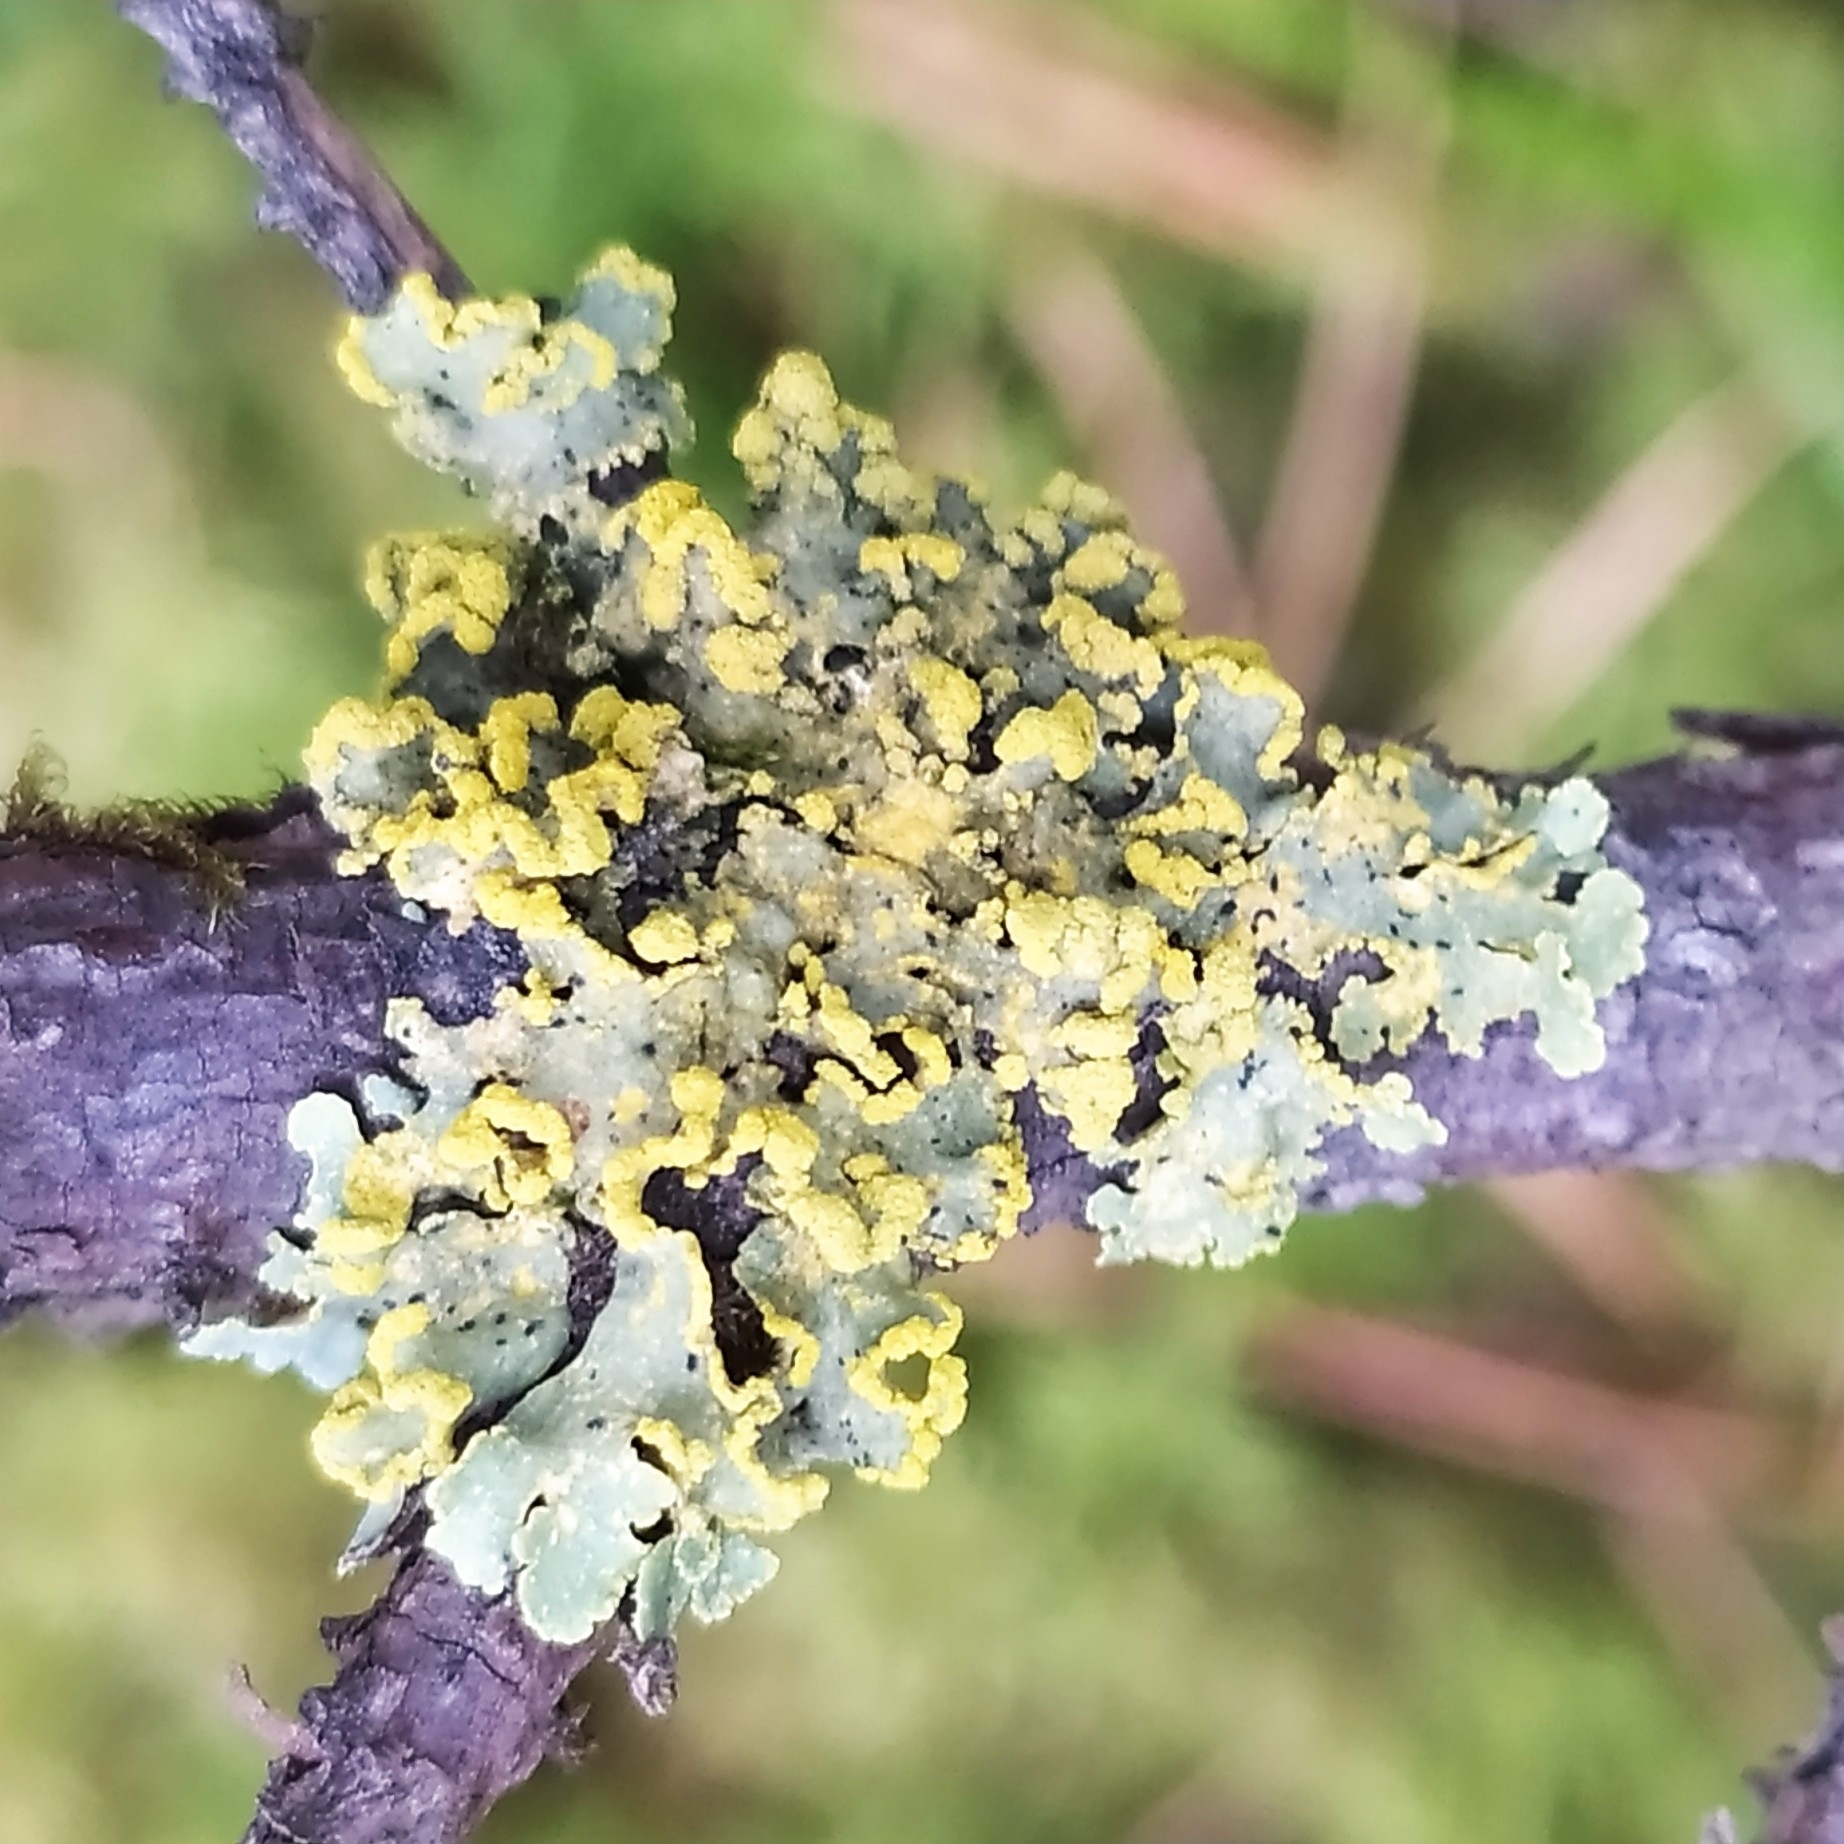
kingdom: Fungi
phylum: Ascomycota
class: Lecanoromycetes
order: Lecanorales
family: Parmeliaceae
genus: Vulpicida
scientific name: Vulpicida pinastri
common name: Powdered sunshine lichen
